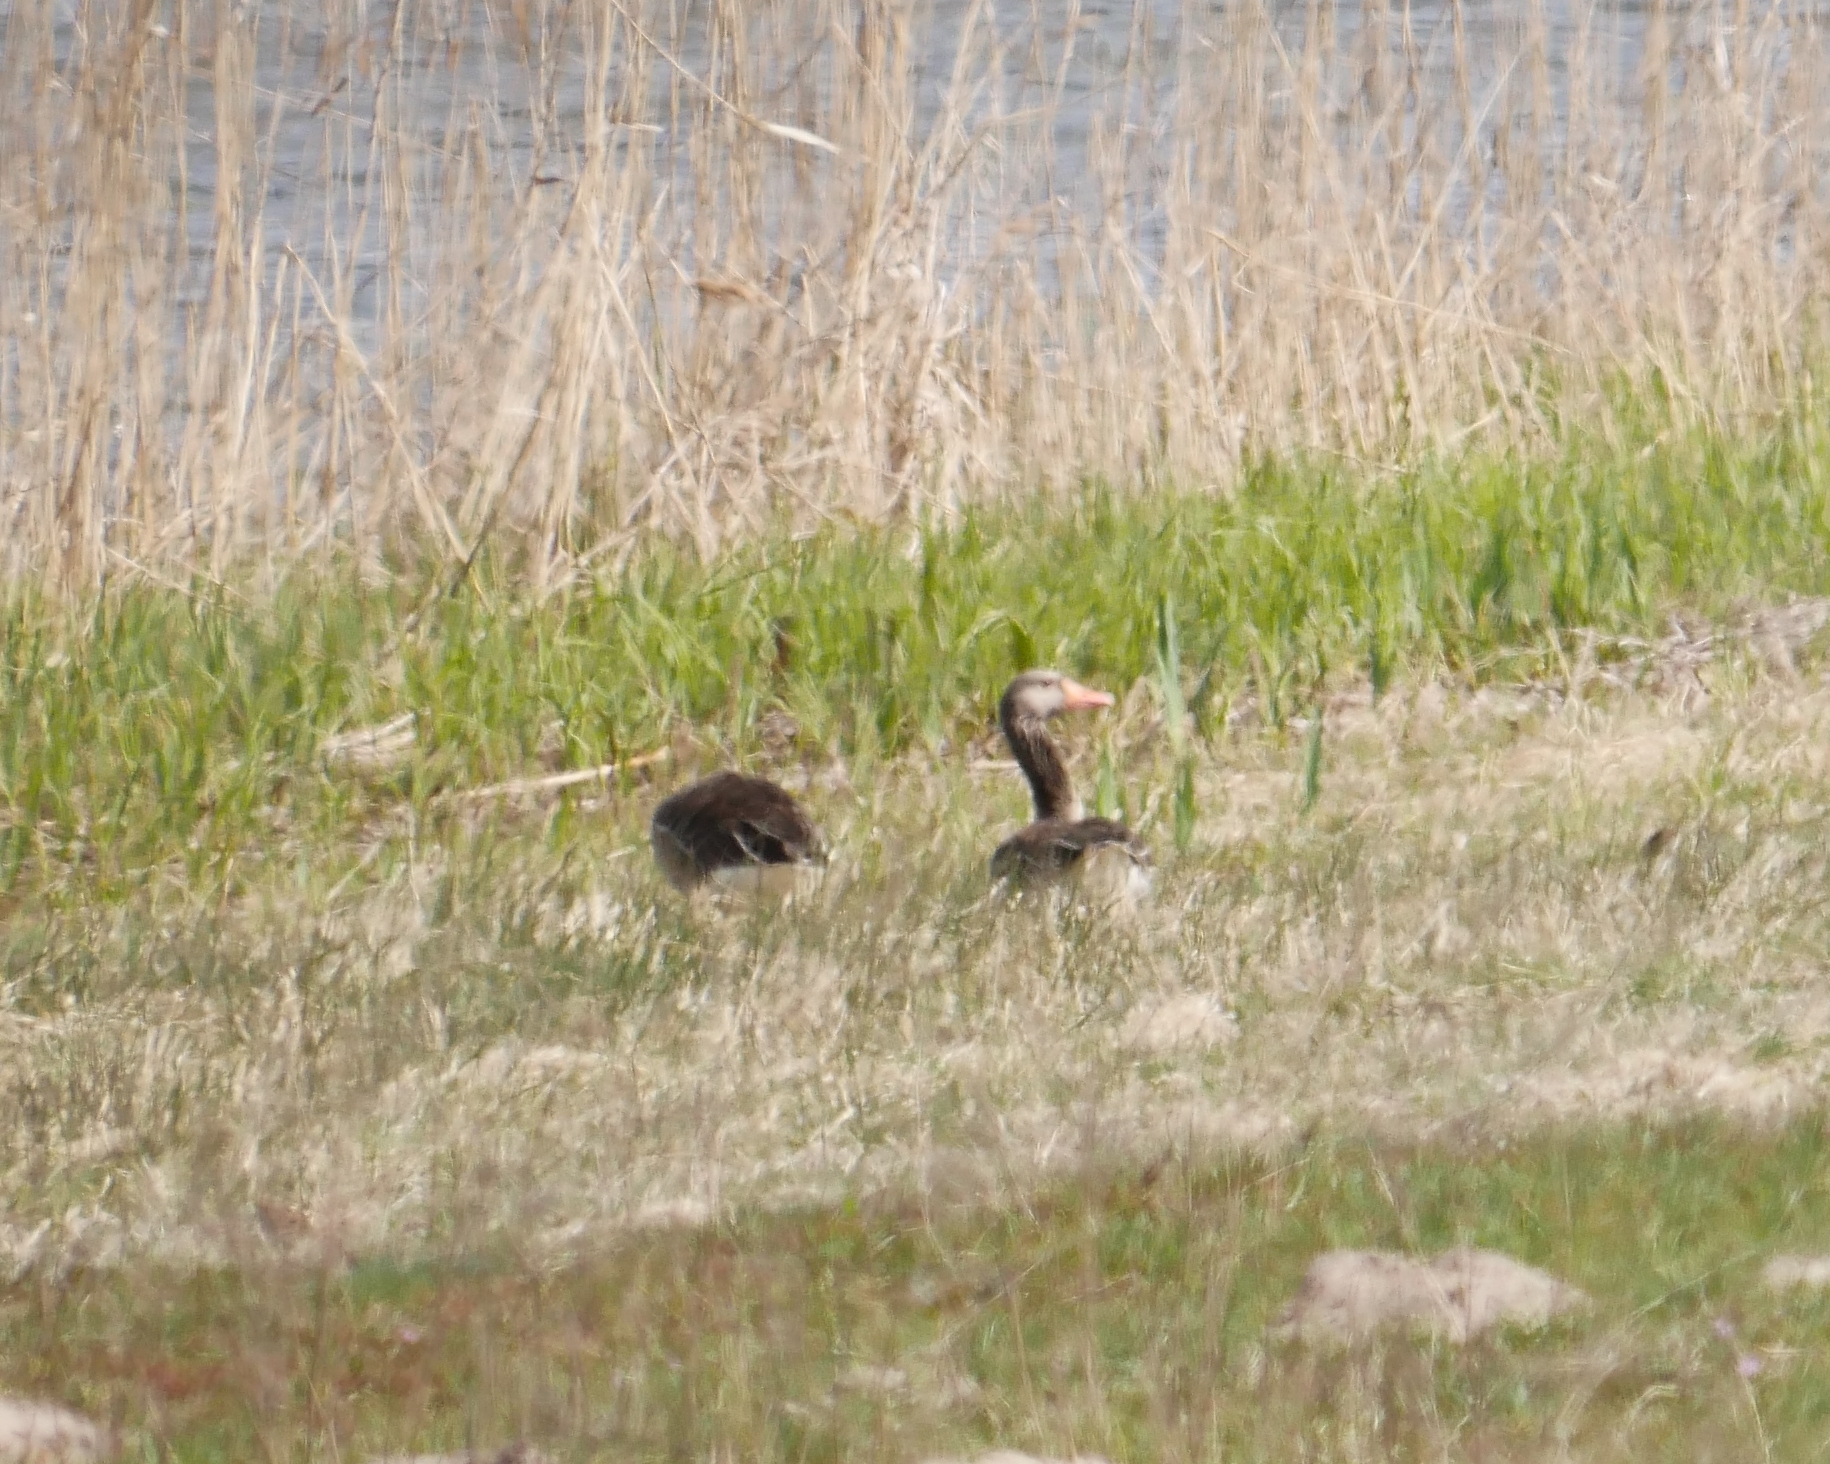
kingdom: Animalia
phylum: Chordata
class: Aves
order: Anseriformes
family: Anatidae
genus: Anser
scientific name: Anser anser
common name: Greylag goose
